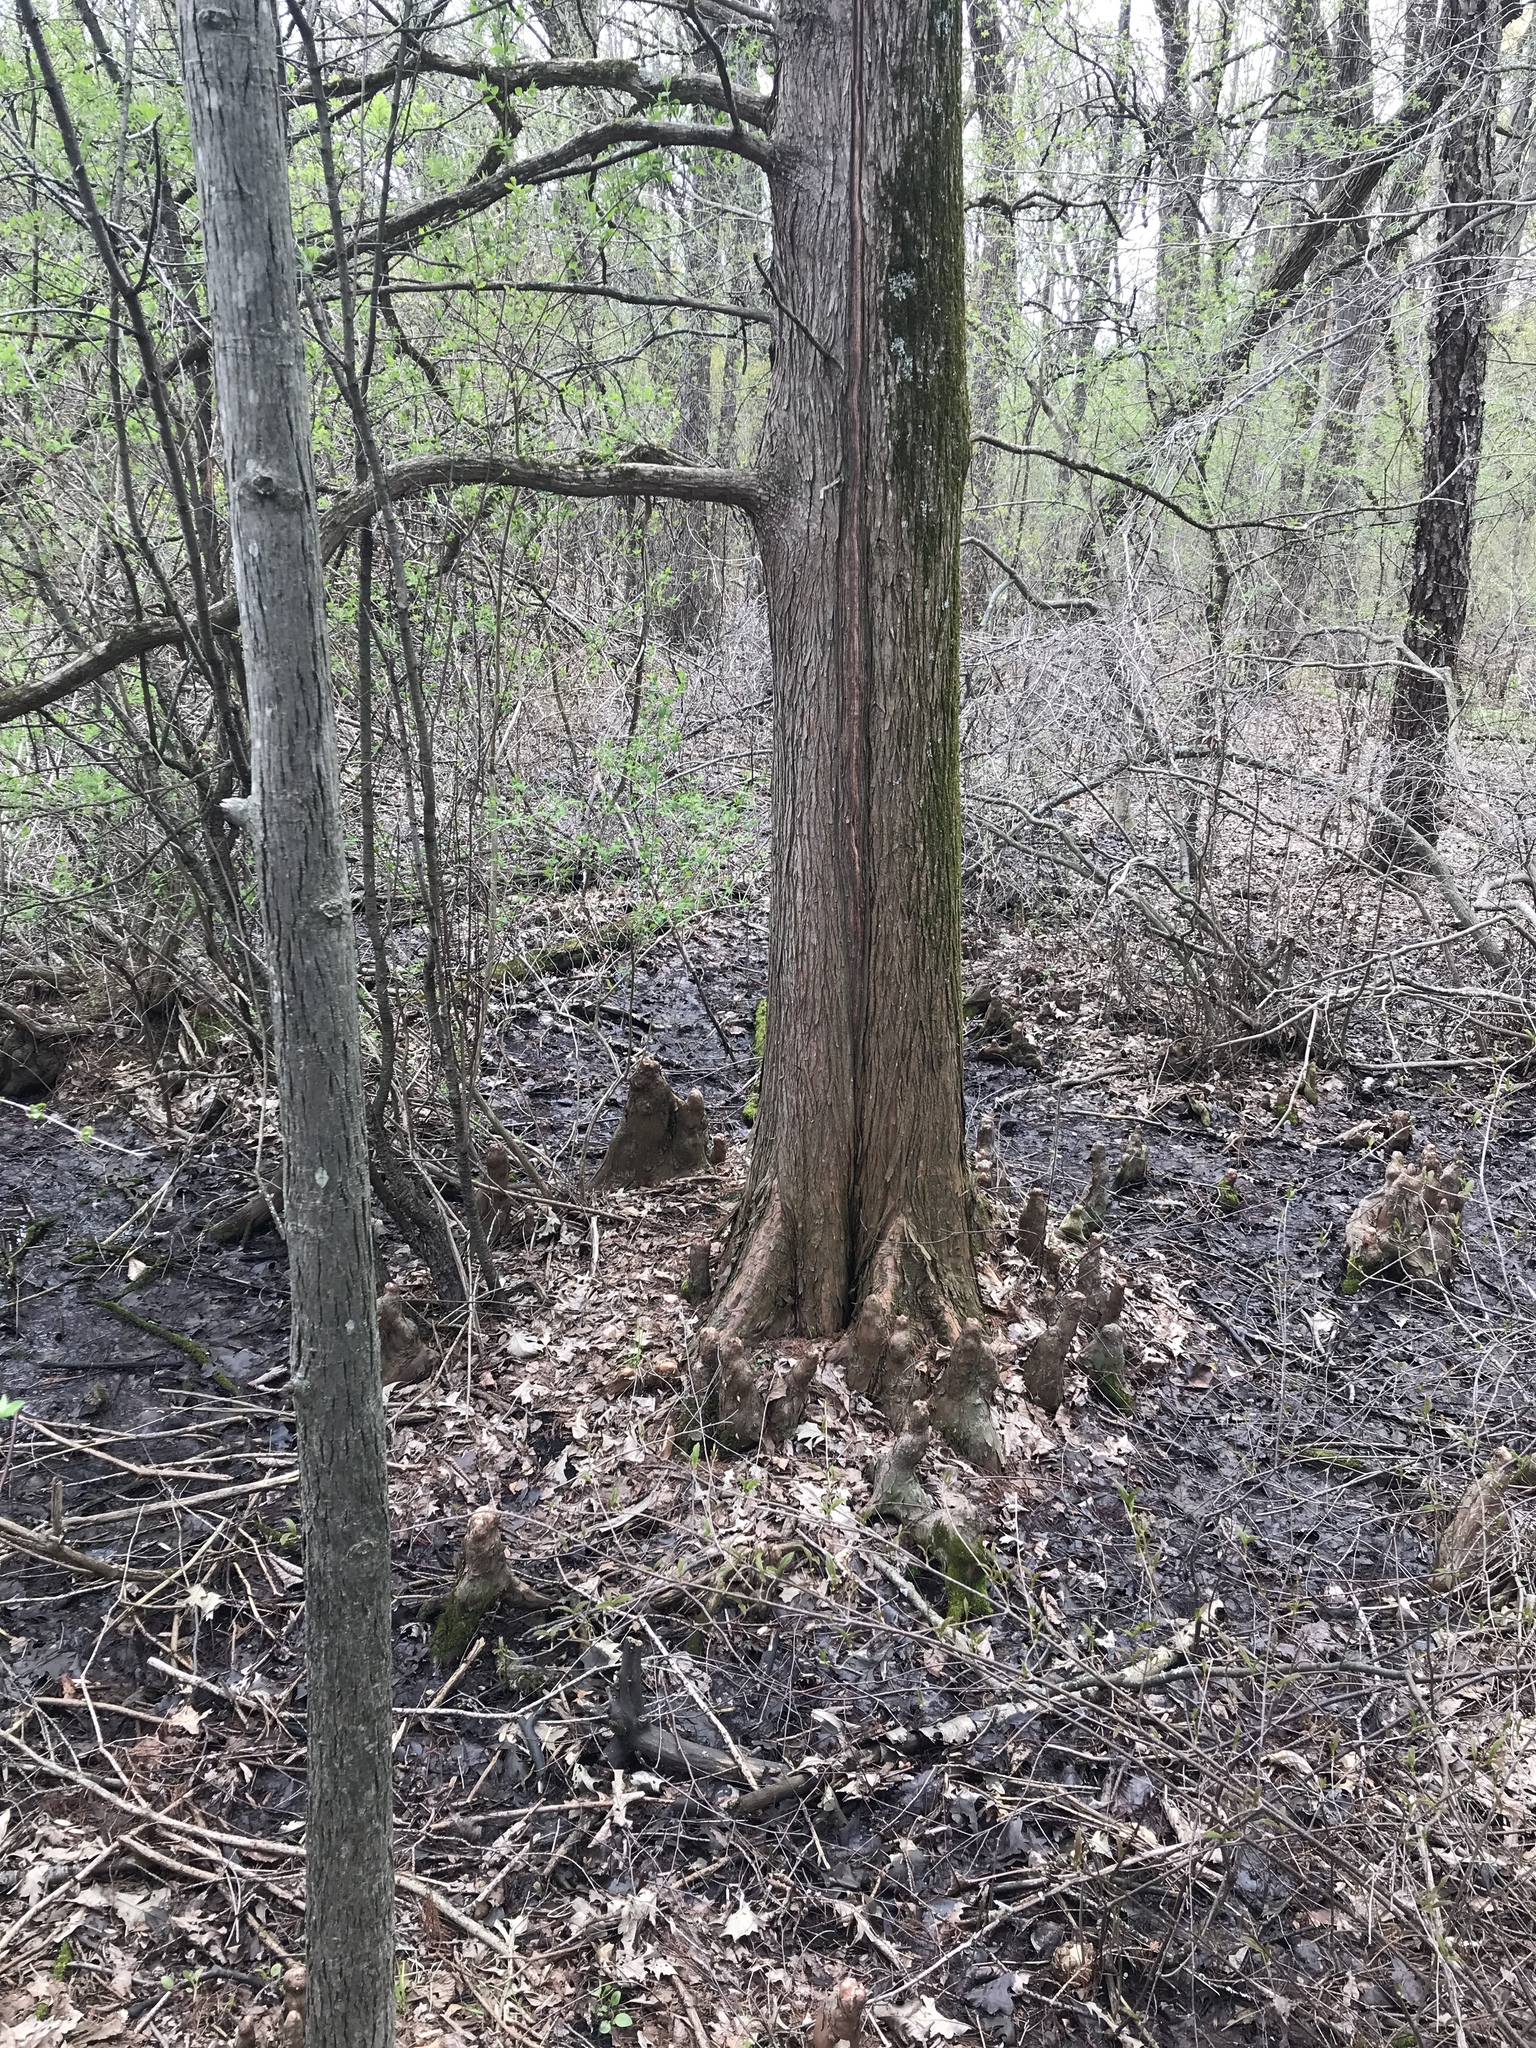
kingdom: Plantae
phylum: Tracheophyta
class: Pinopsida
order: Pinales
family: Cupressaceae
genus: Taxodium
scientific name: Taxodium distichum
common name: Bald cypress
